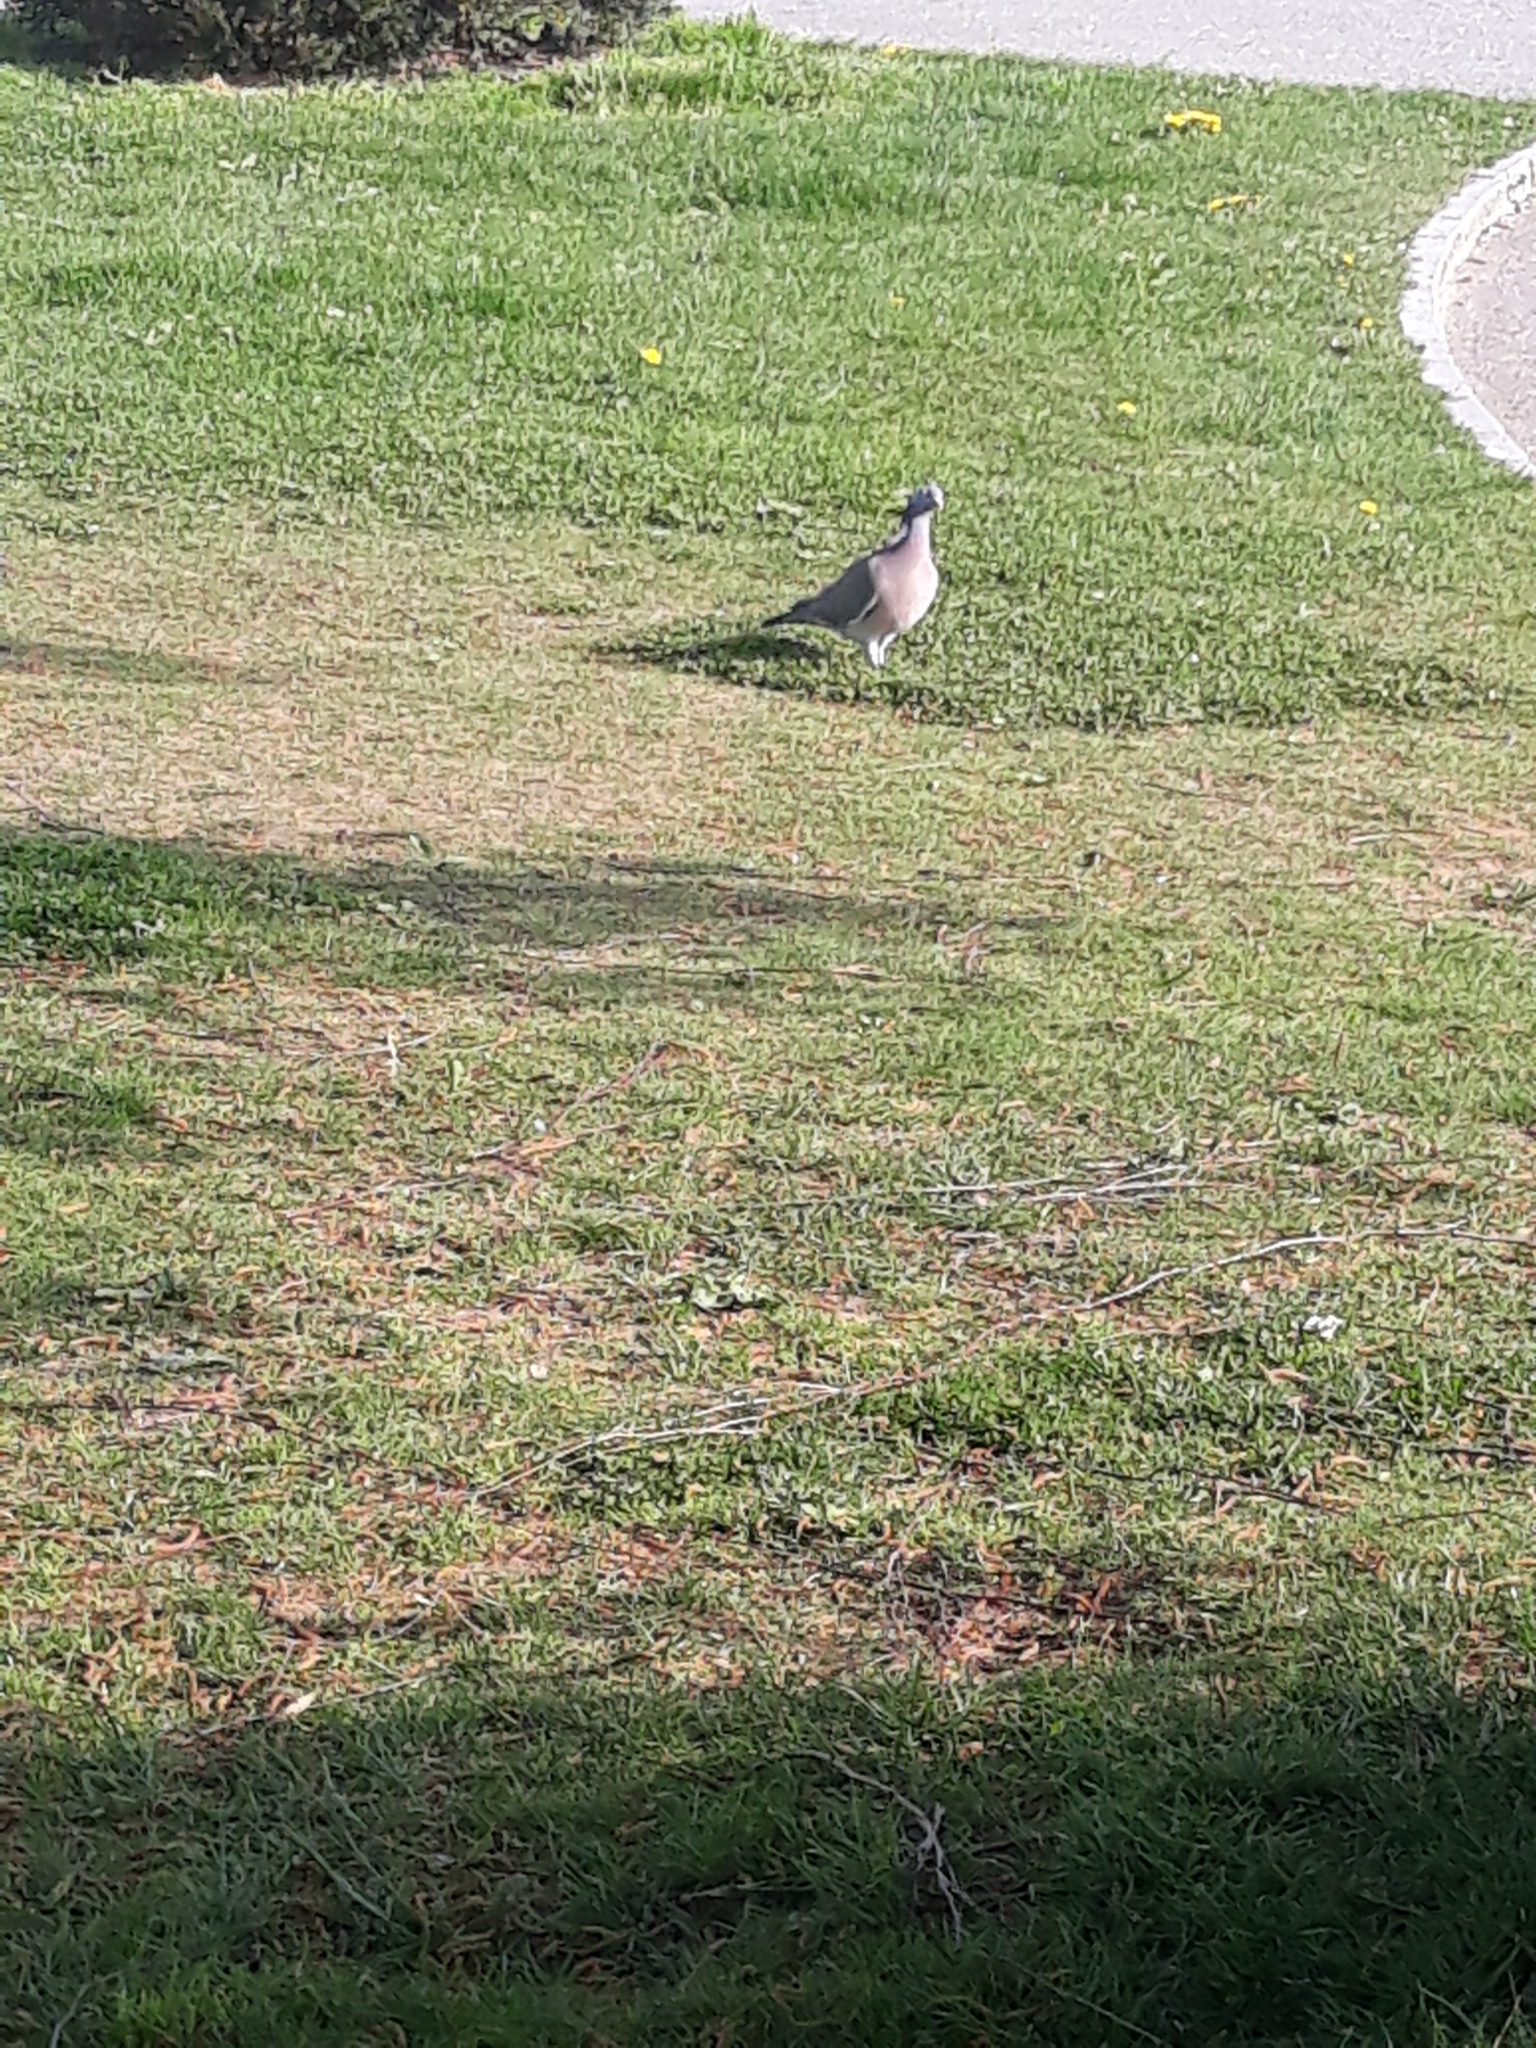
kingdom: Animalia
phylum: Chordata
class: Aves
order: Columbiformes
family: Columbidae
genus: Columba
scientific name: Columba palumbus
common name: Common wood pigeon
